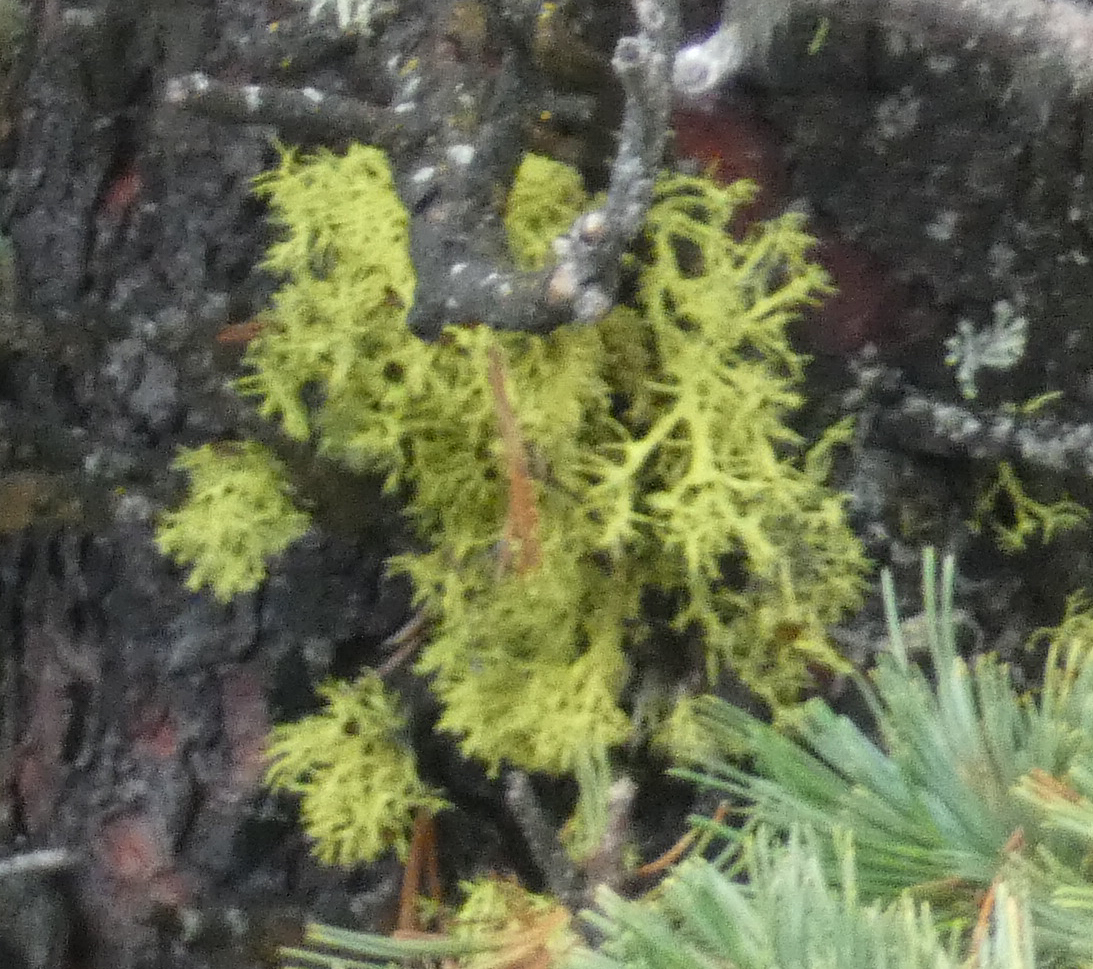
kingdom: Fungi
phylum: Ascomycota
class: Lecanoromycetes
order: Lecanorales
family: Parmeliaceae
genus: Letharia
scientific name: Letharia vulpina
